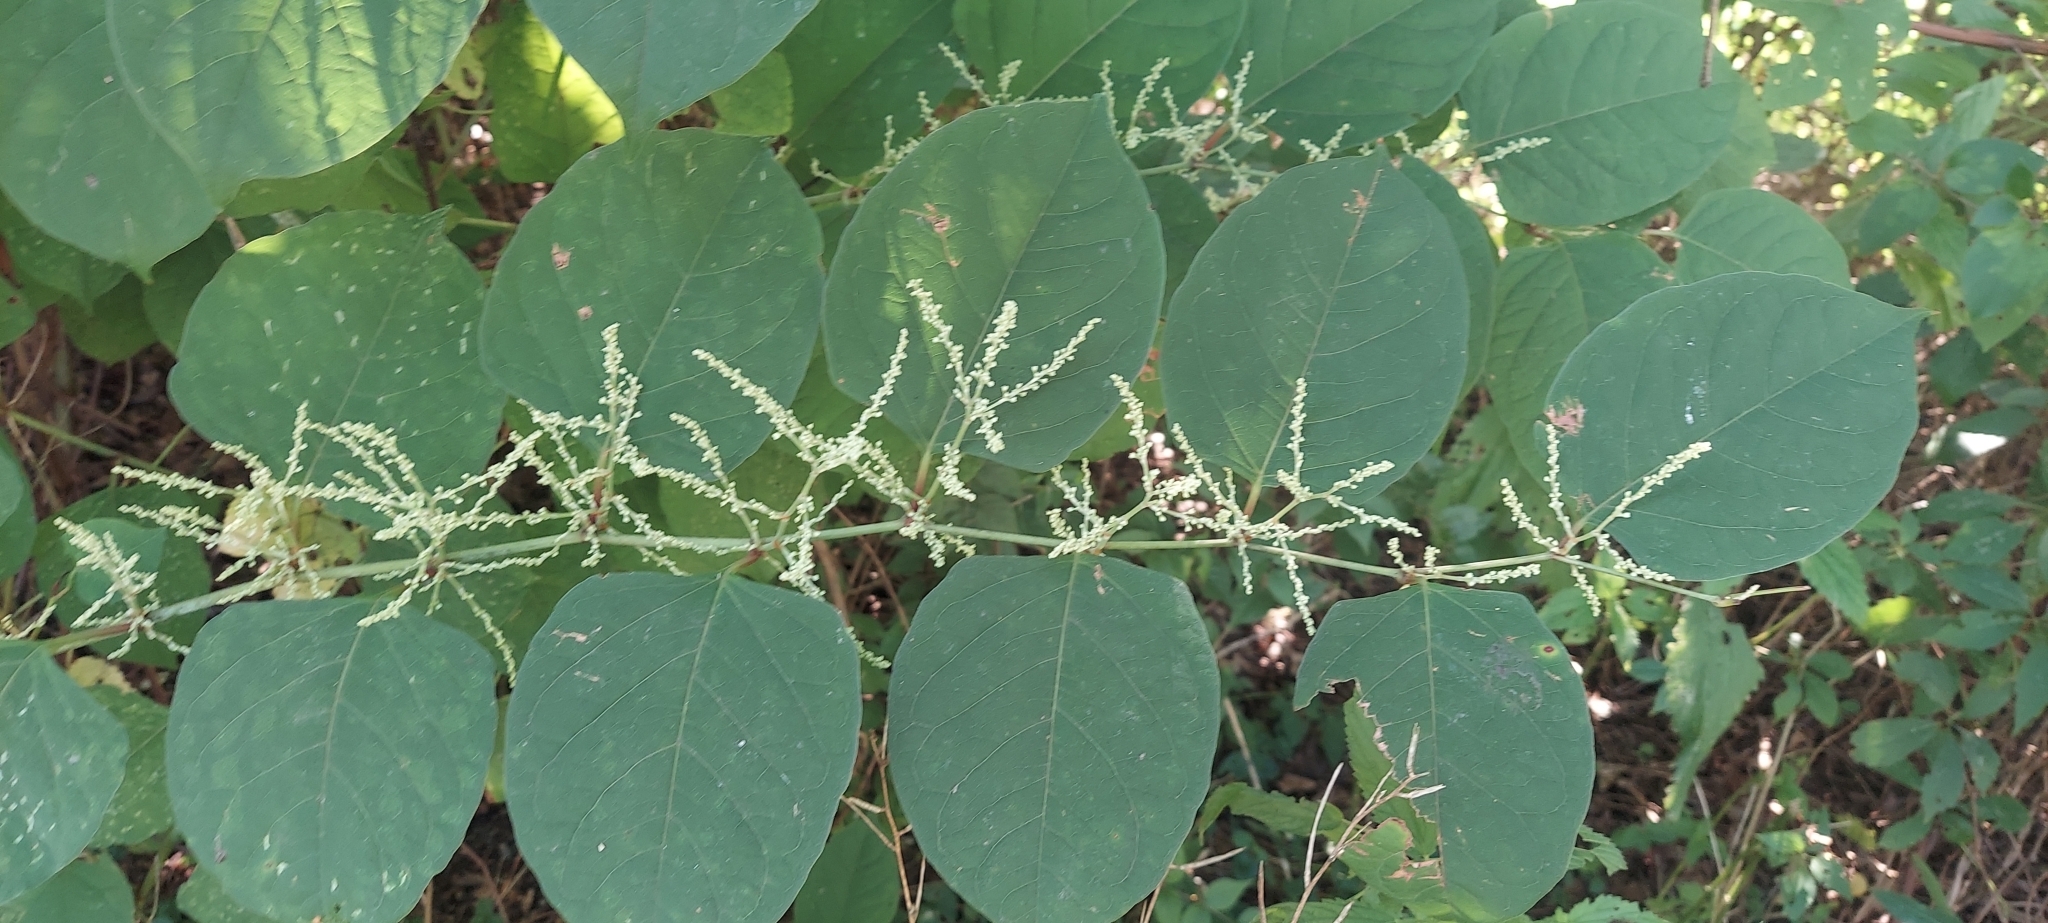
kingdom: Plantae
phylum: Tracheophyta
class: Magnoliopsida
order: Caryophyllales
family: Polygonaceae
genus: Reynoutria
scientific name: Reynoutria japonica
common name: Japanese knotweed
